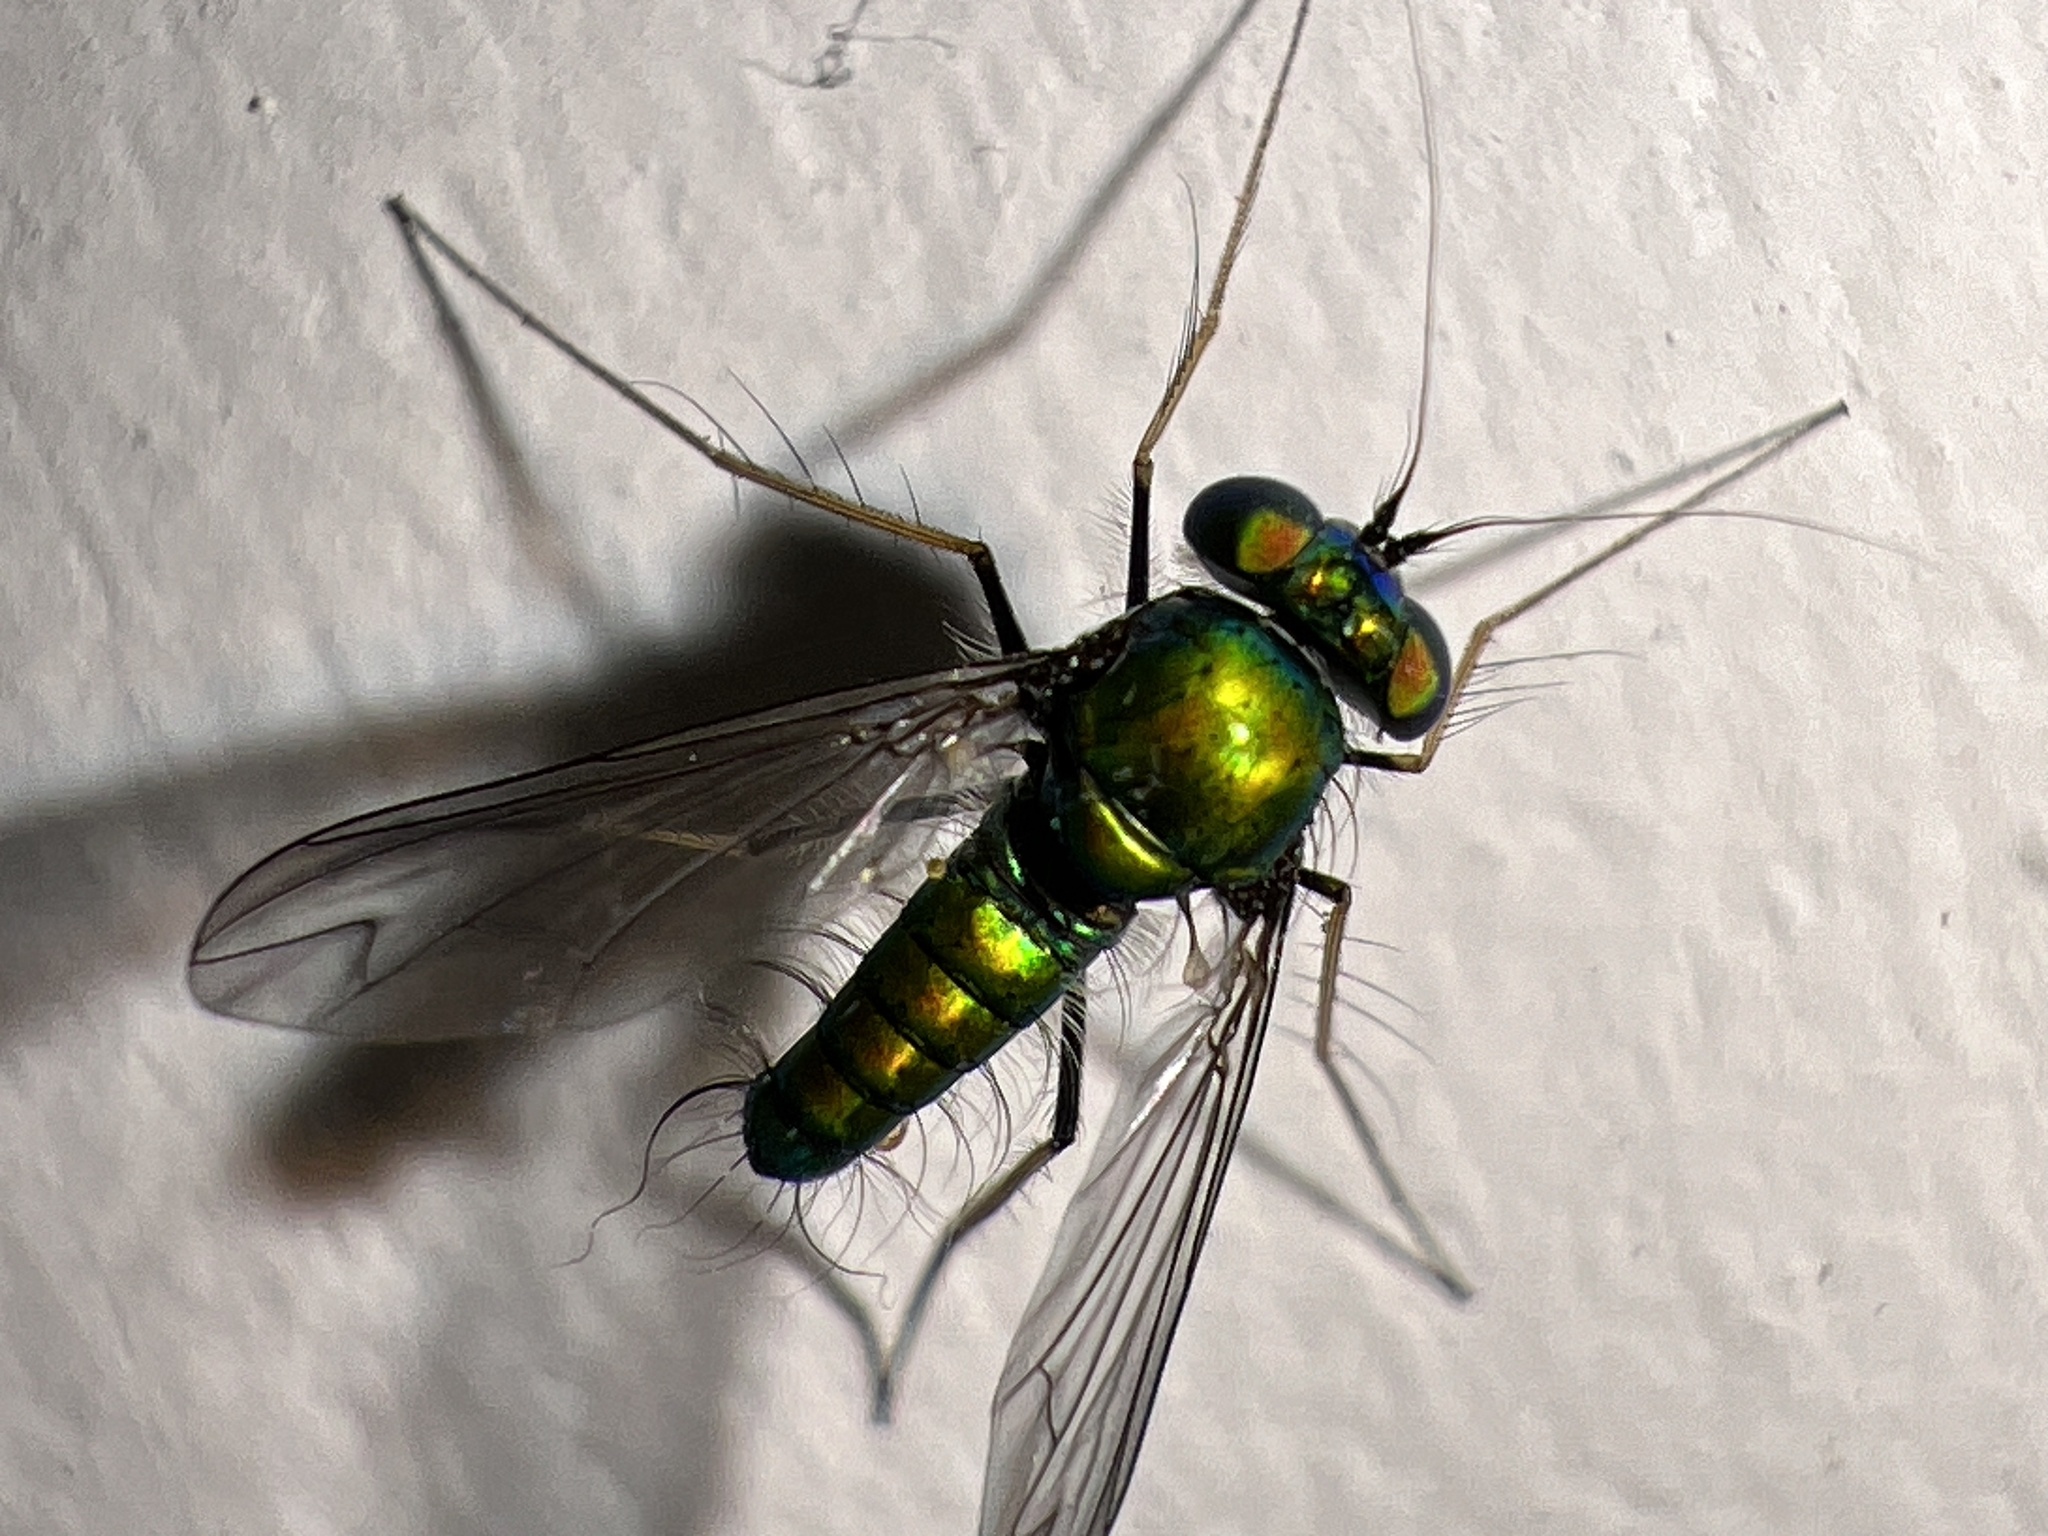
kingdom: Animalia
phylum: Arthropoda
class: Insecta
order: Diptera
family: Dolichopodidae
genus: Condylostylus
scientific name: Condylostylus comatus
